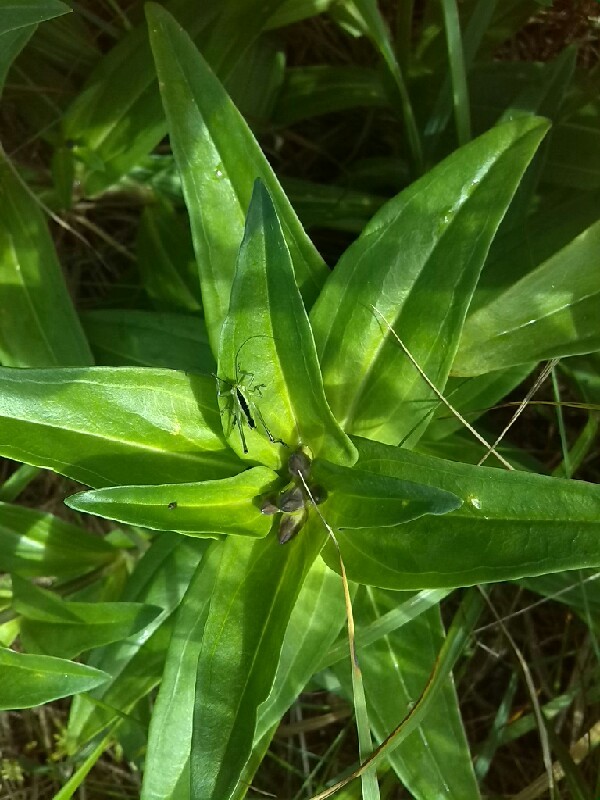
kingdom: Plantae
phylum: Tracheophyta
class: Magnoliopsida
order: Gentianales
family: Gentianaceae
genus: Gentiana
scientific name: Gentiana cruciata
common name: Cross gentian
